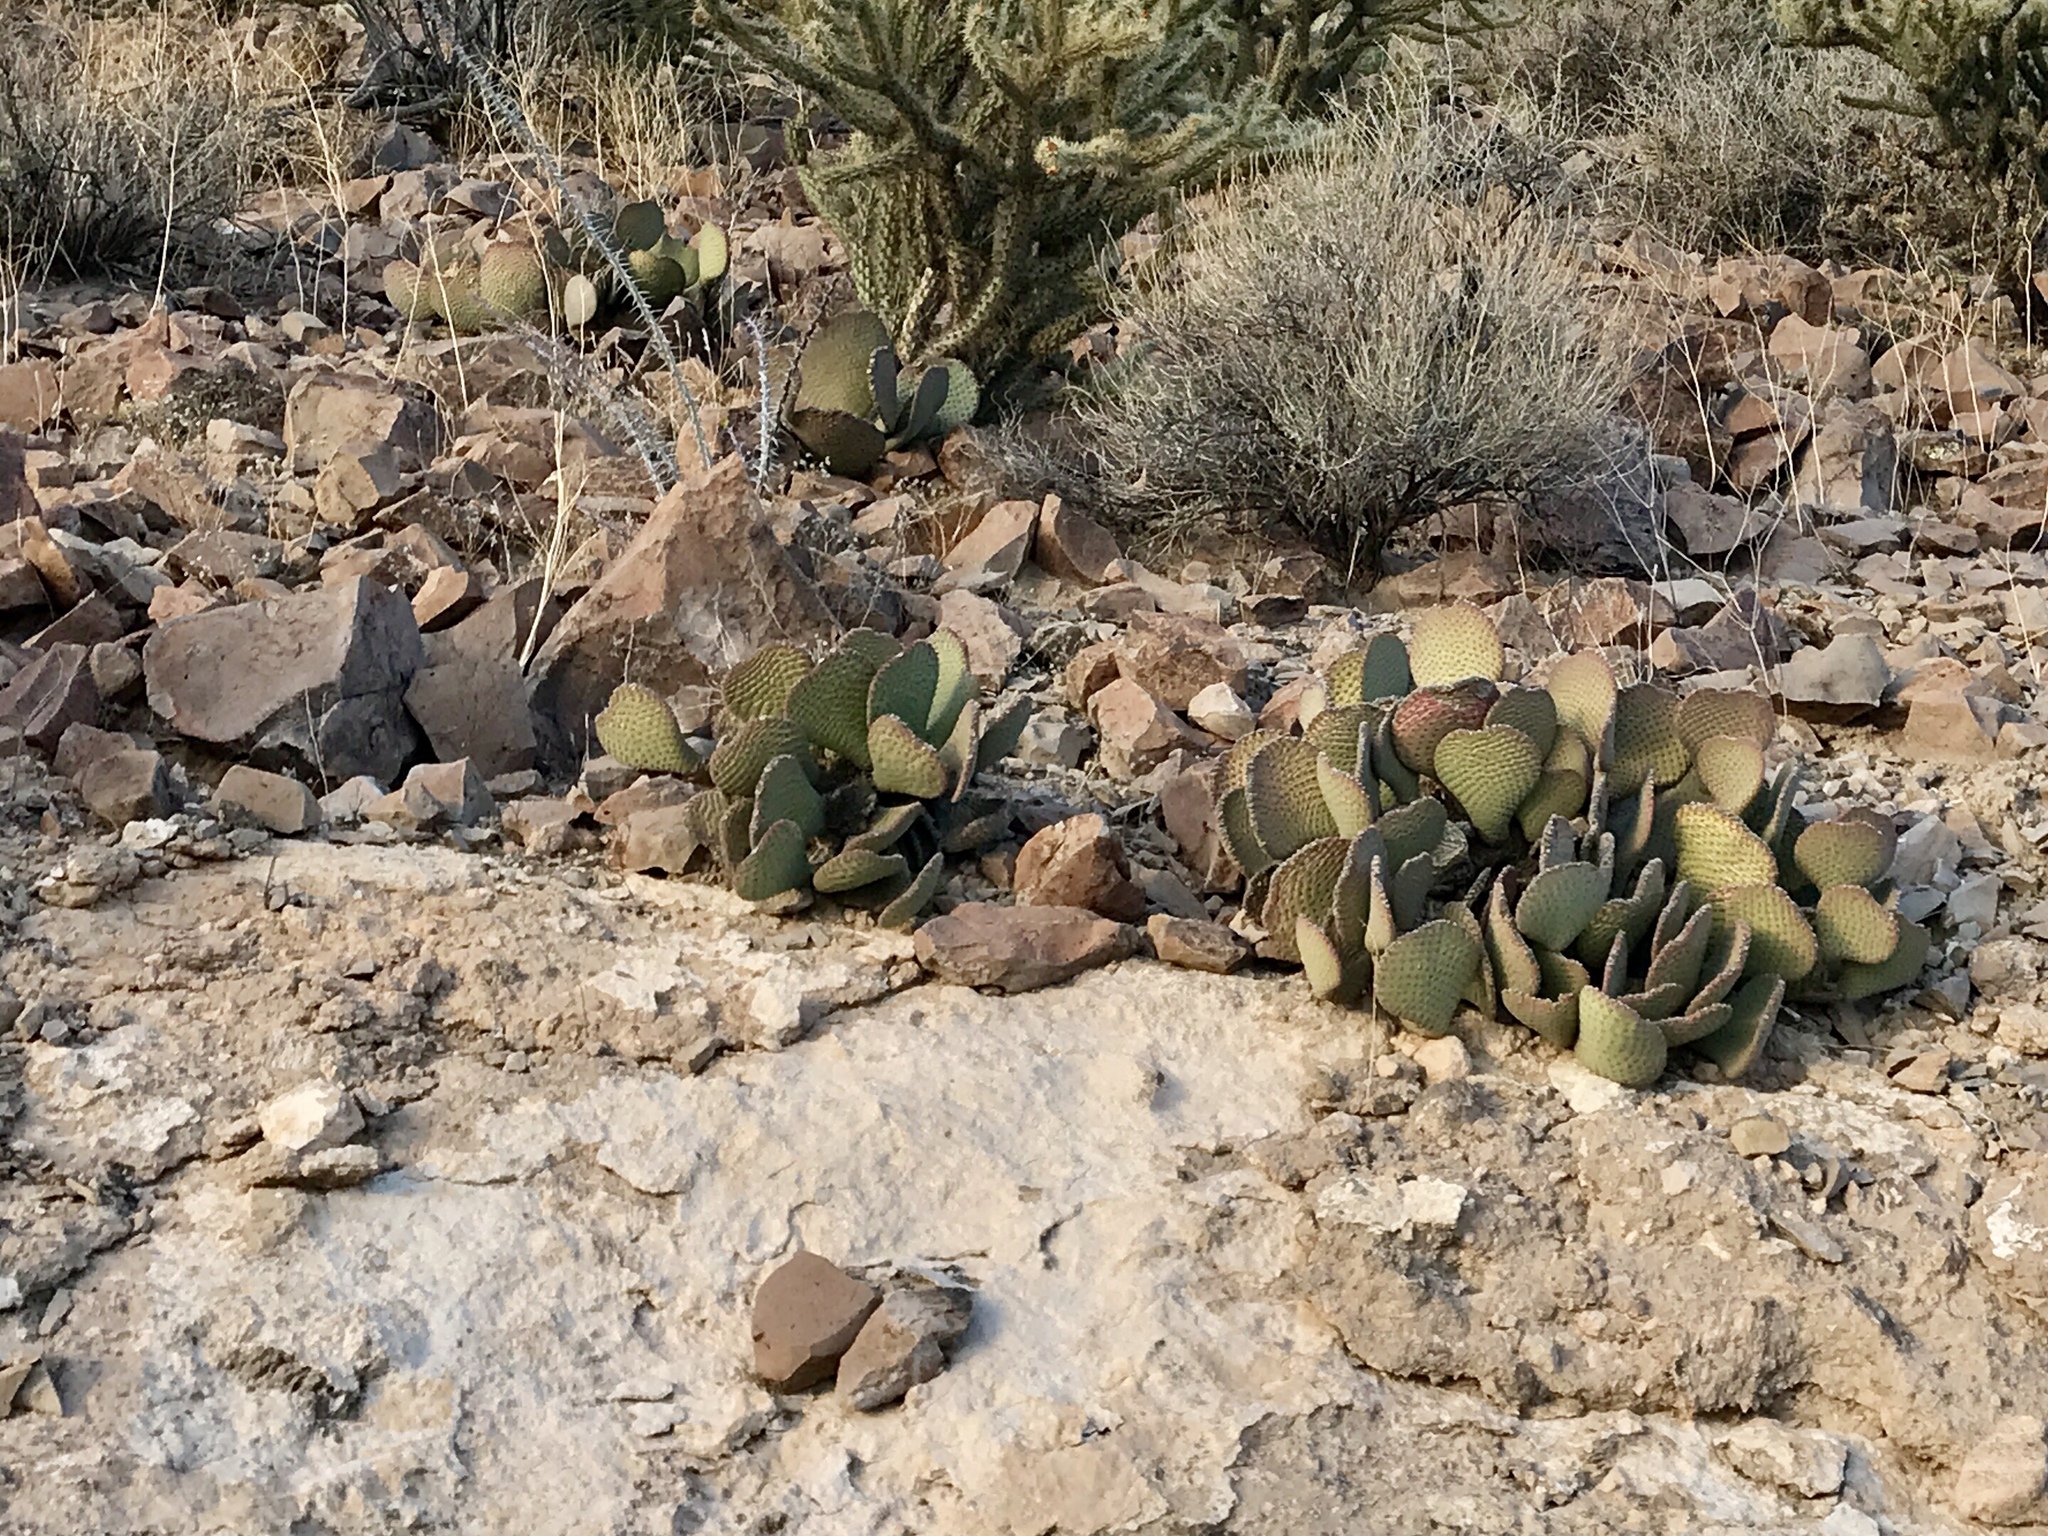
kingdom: Plantae
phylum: Tracheophyta
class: Magnoliopsida
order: Caryophyllales
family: Cactaceae
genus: Opuntia
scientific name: Opuntia basilaris
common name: Beavertail prickly-pear
